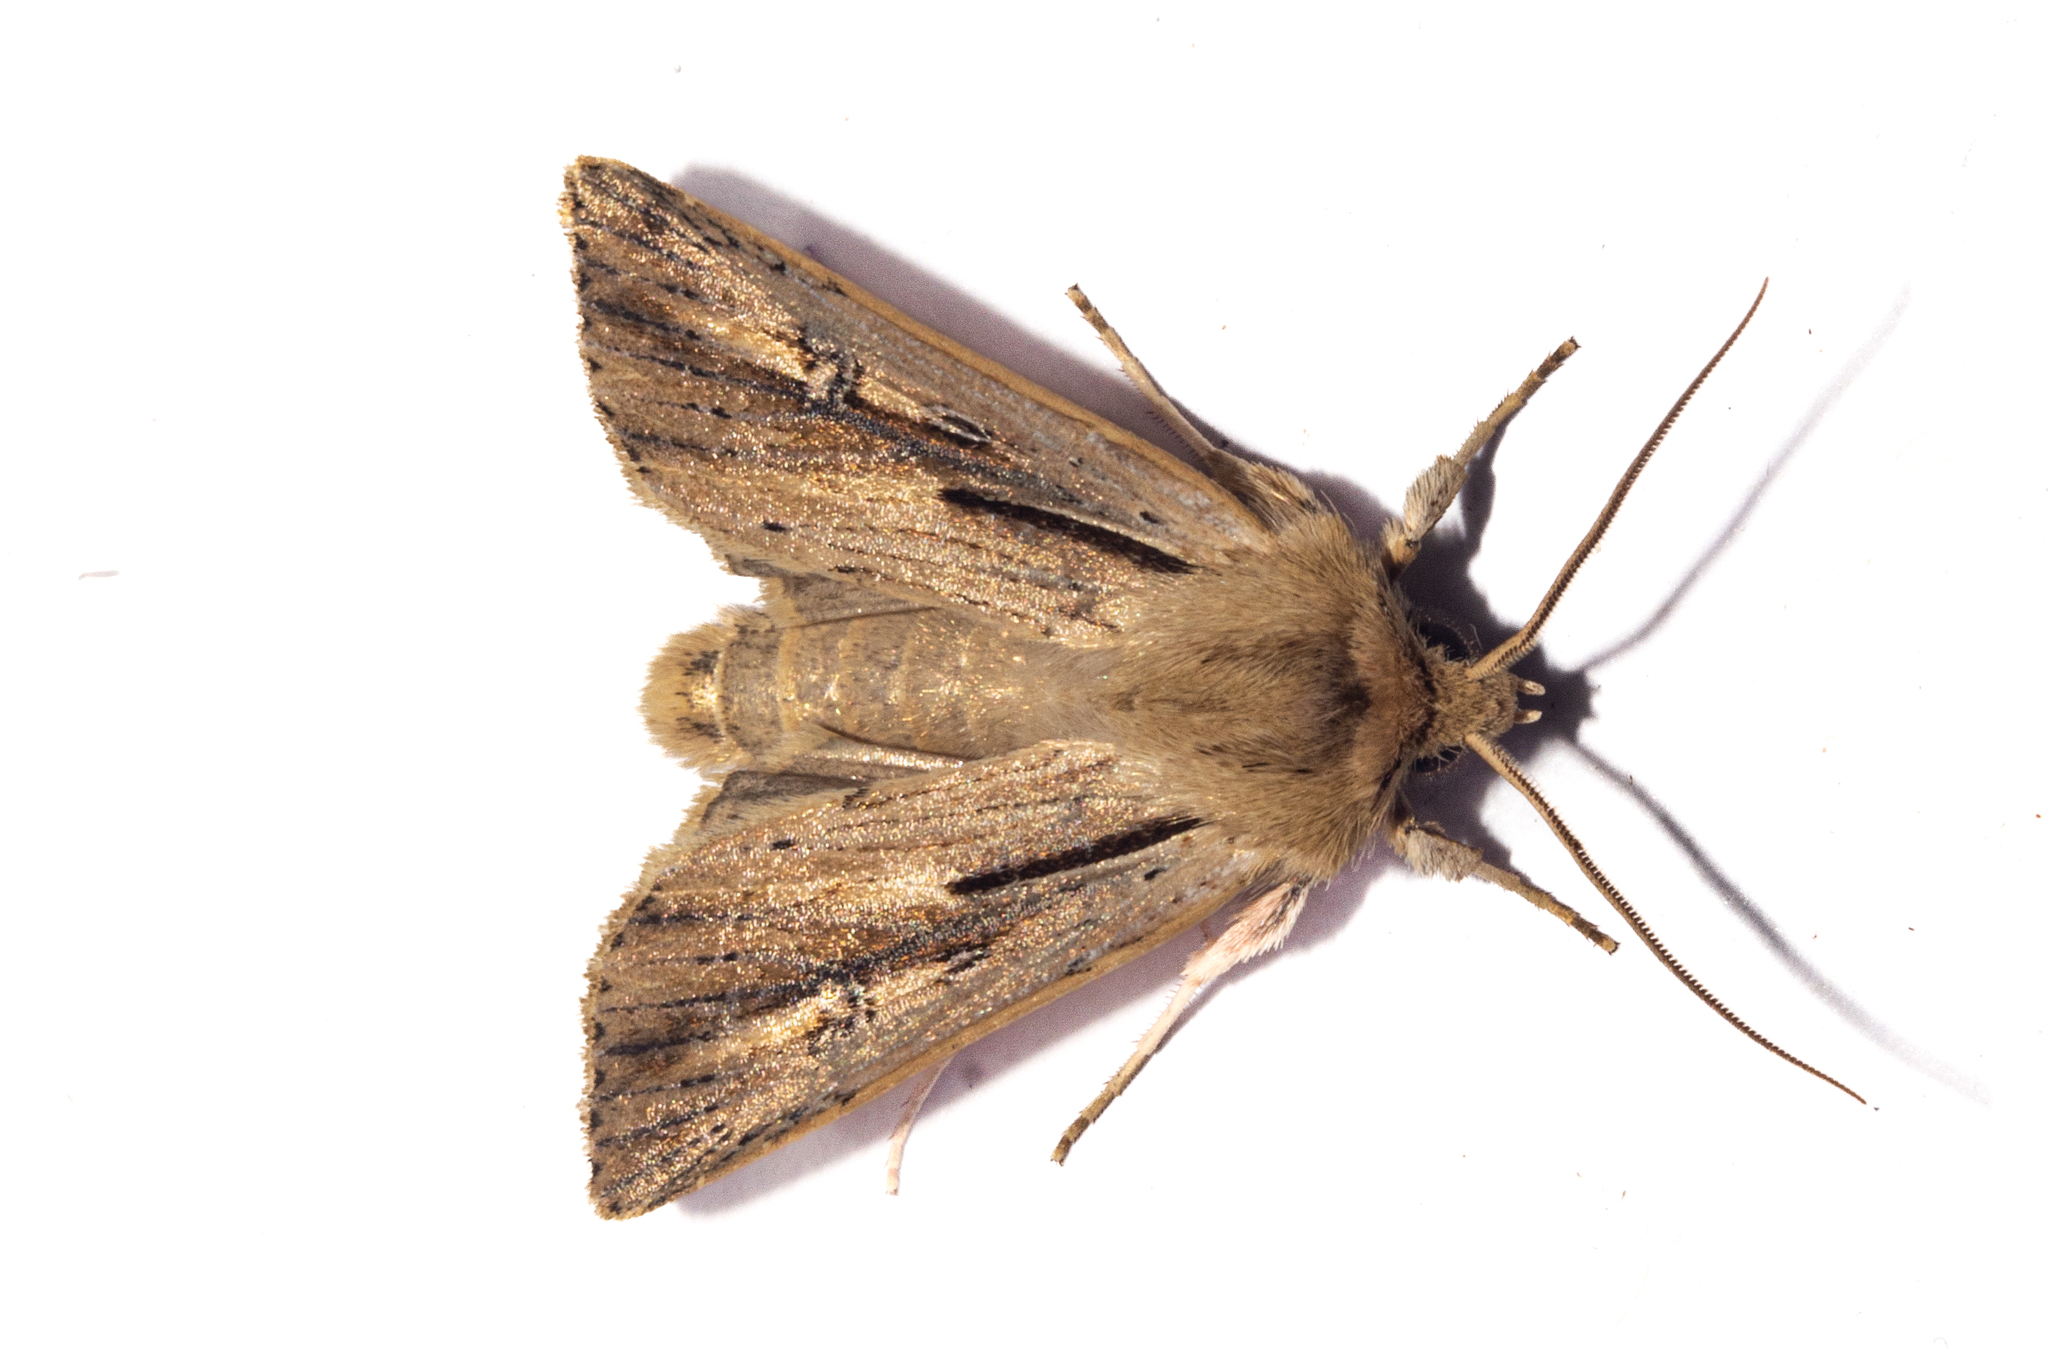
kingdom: Animalia
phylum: Arthropoda
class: Insecta
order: Lepidoptera
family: Noctuidae
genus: Ichneutica
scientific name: Ichneutica propria
